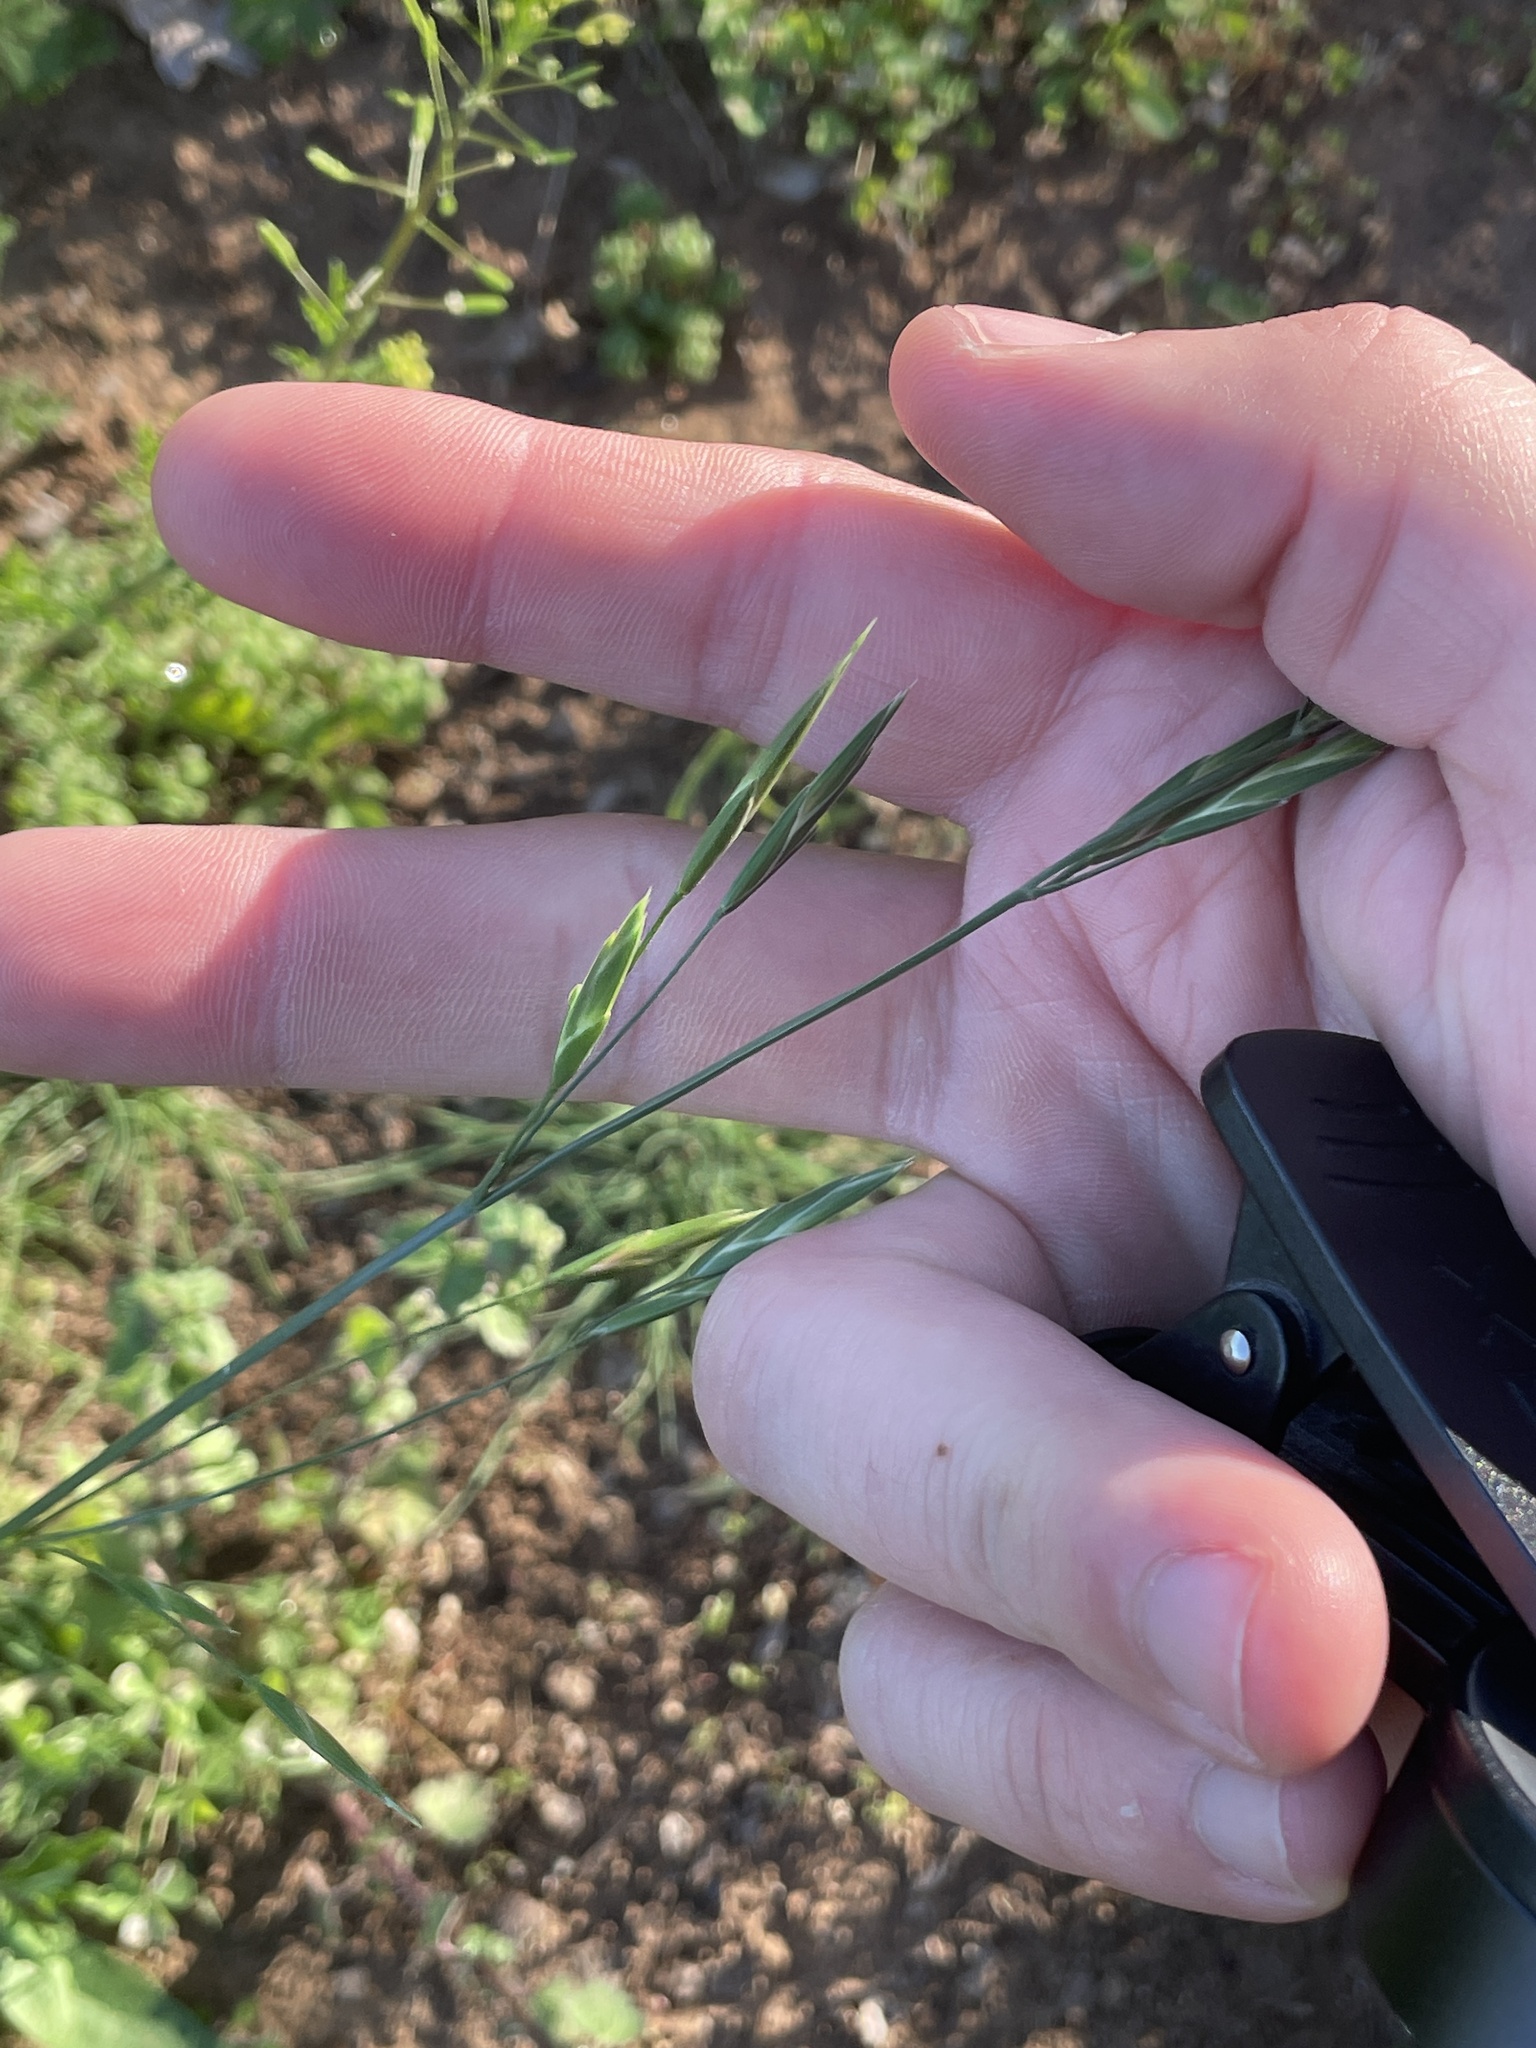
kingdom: Plantae
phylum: Tracheophyta
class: Liliopsida
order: Poales
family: Poaceae
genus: Bromus
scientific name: Bromus catharticus
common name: Rescuegrass
